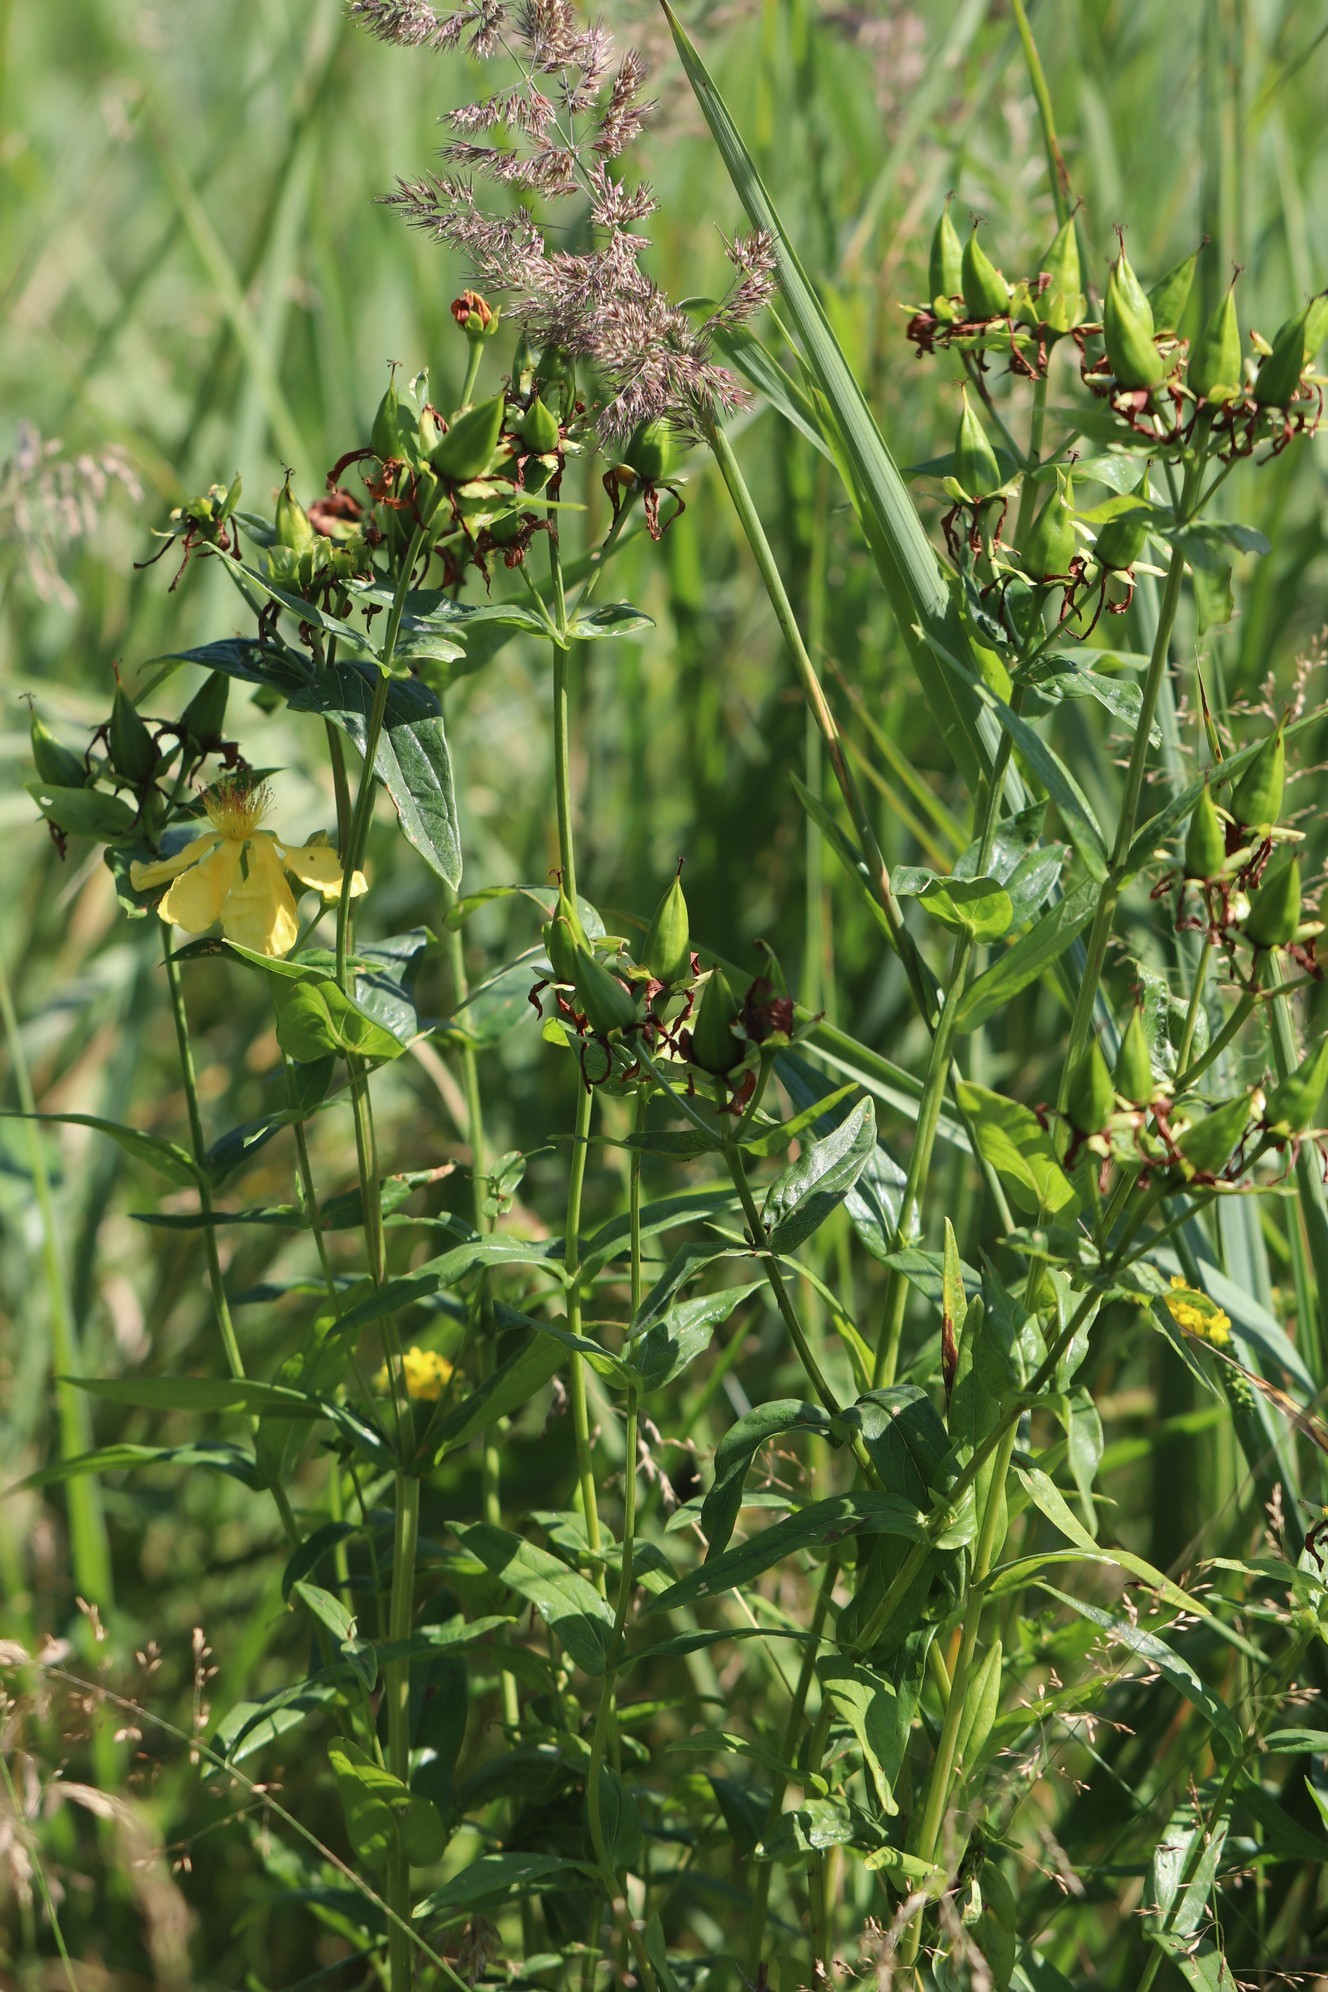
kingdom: Plantae
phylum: Tracheophyta
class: Magnoliopsida
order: Malpighiales
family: Hypericaceae
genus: Hypericum
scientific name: Hypericum ascyron
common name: Giant st. john's-wort
